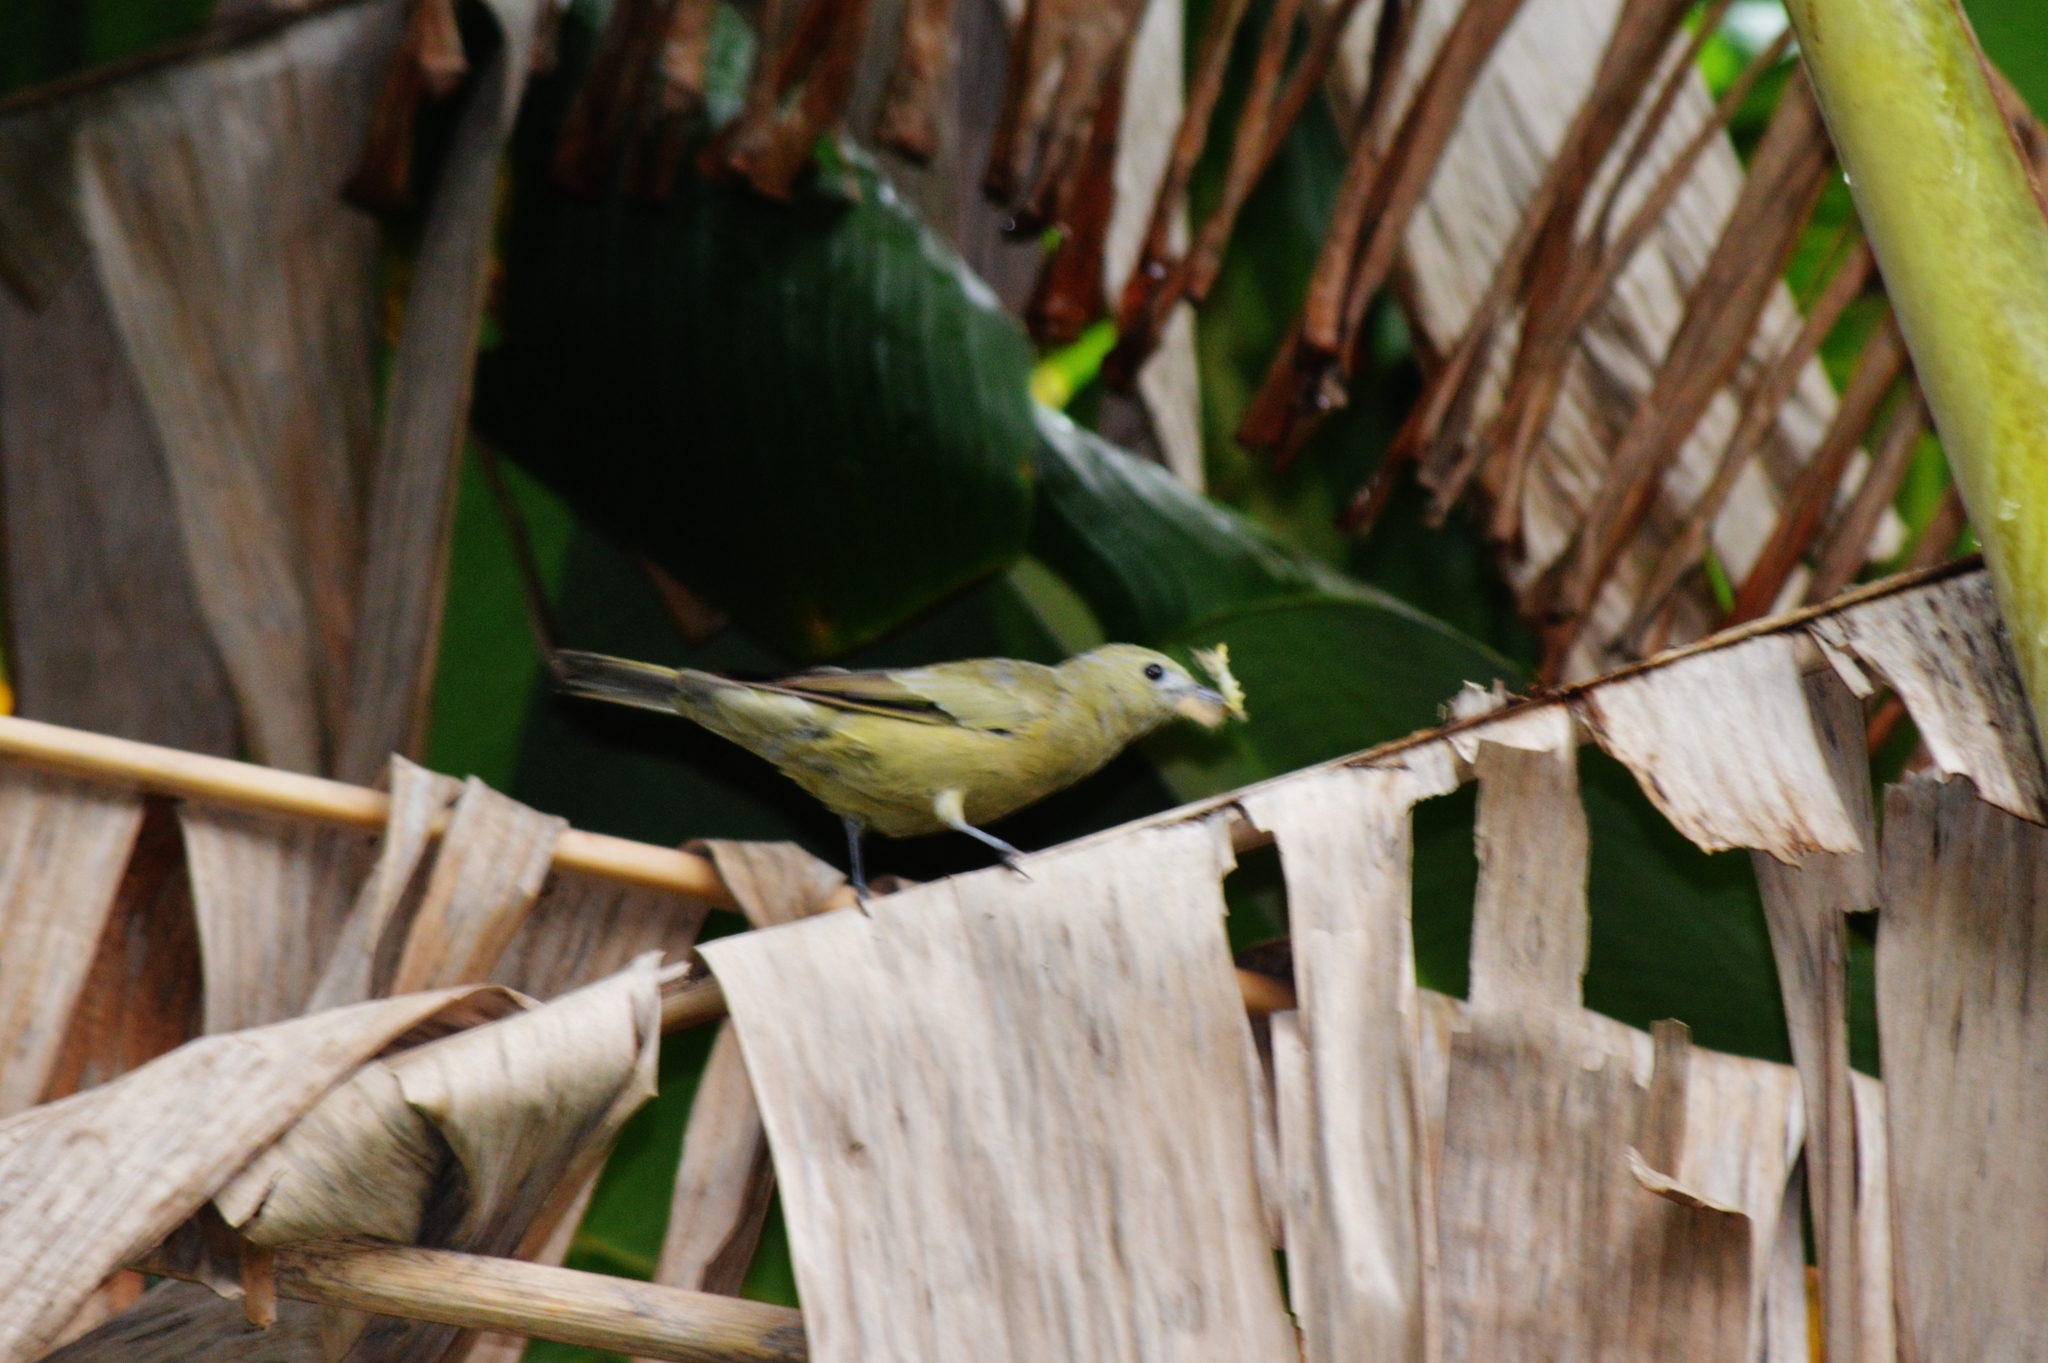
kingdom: Animalia
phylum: Chordata
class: Aves
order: Passeriformes
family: Thraupidae
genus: Thraupis
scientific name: Thraupis palmarum
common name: Palm tanager
